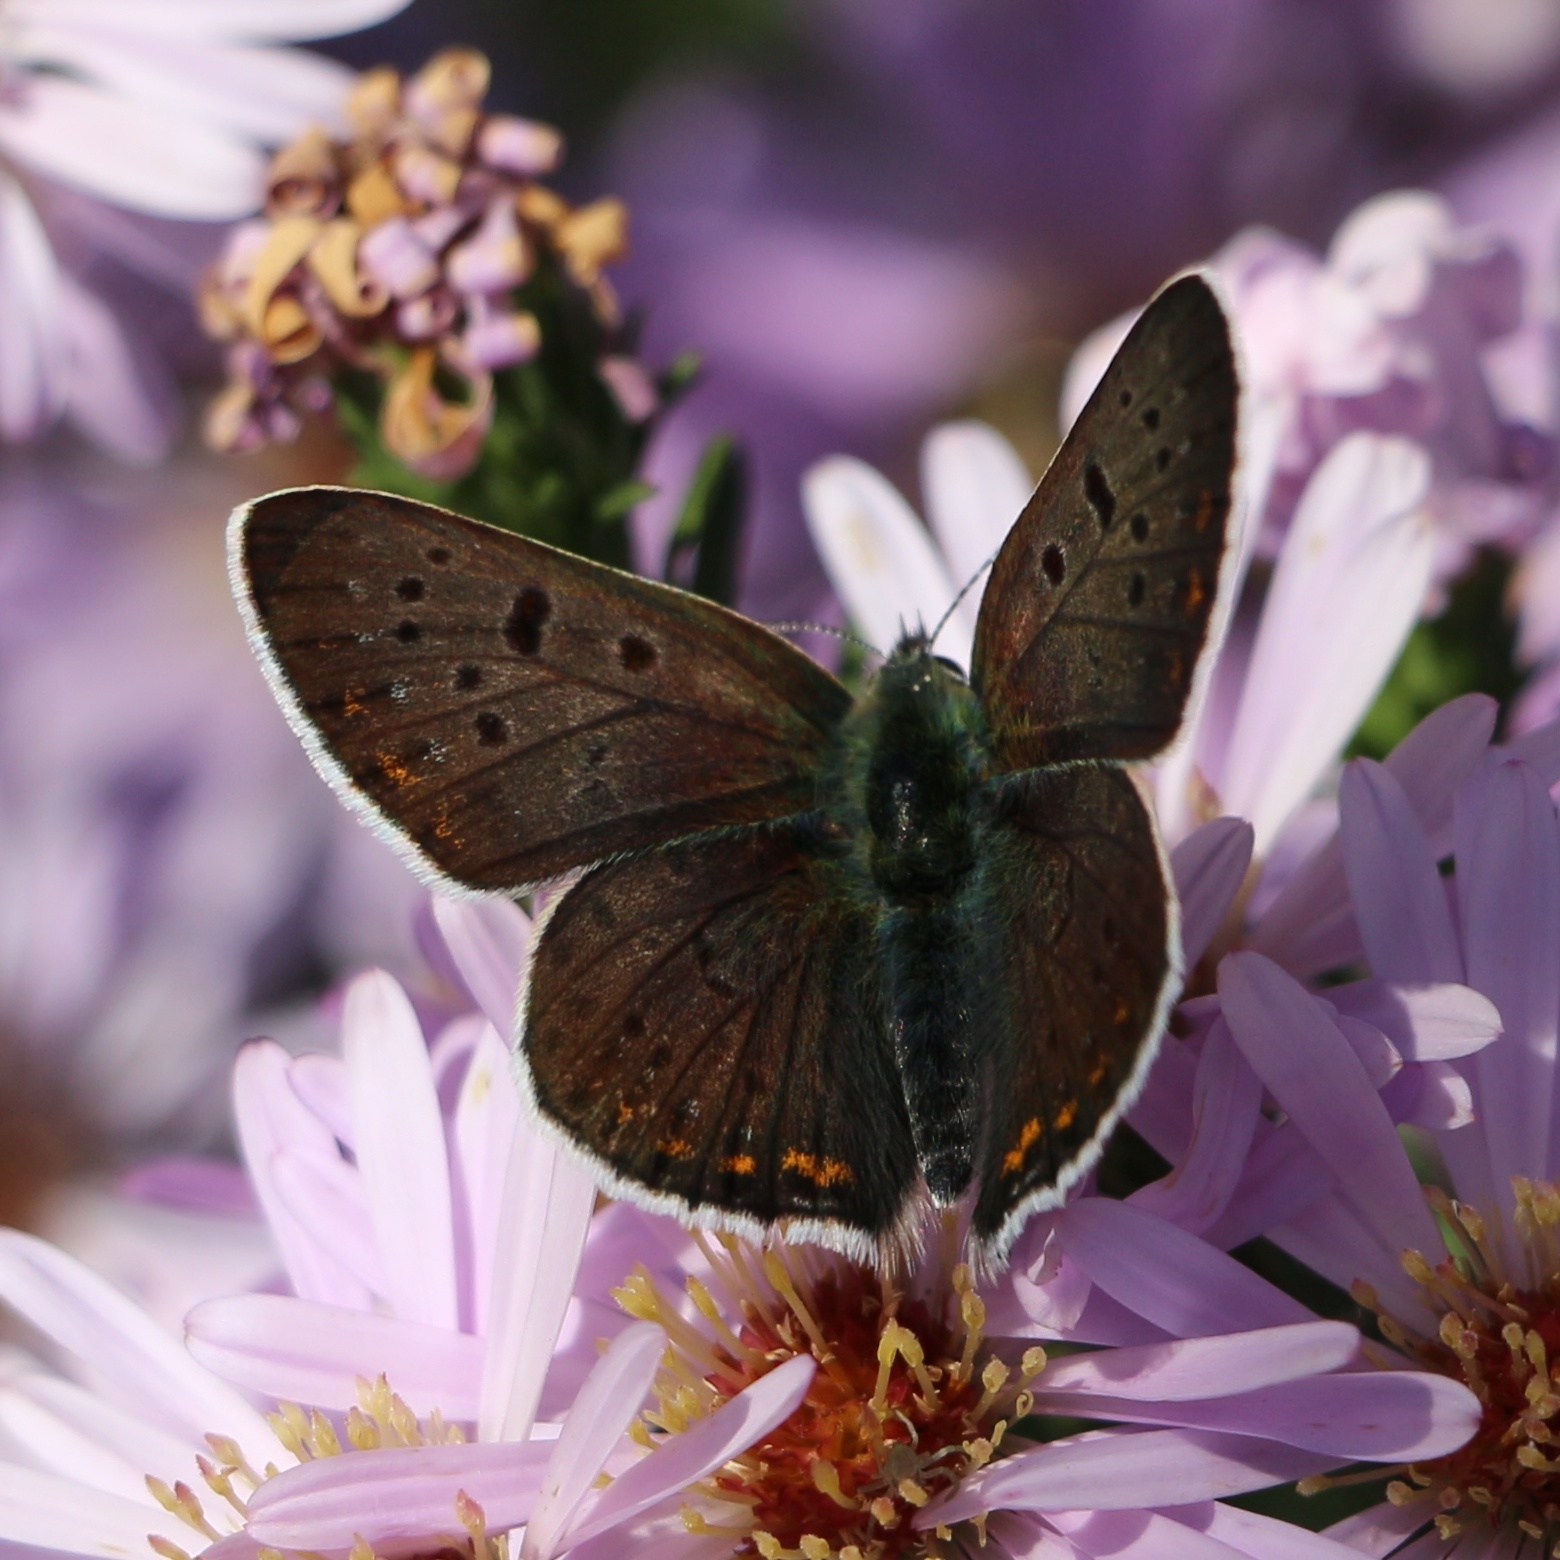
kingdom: Animalia
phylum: Arthropoda
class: Insecta
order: Lepidoptera
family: Lycaenidae
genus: Loweia
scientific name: Loweia tityrus
